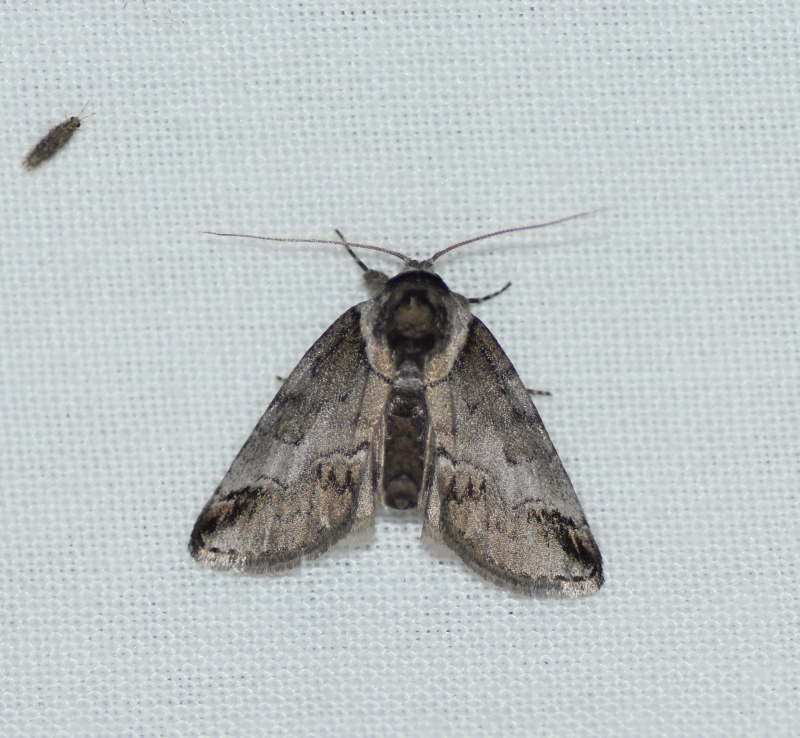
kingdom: Animalia
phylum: Arthropoda
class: Insecta
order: Lepidoptera
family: Nolidae
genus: Baileya
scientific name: Baileya australis
